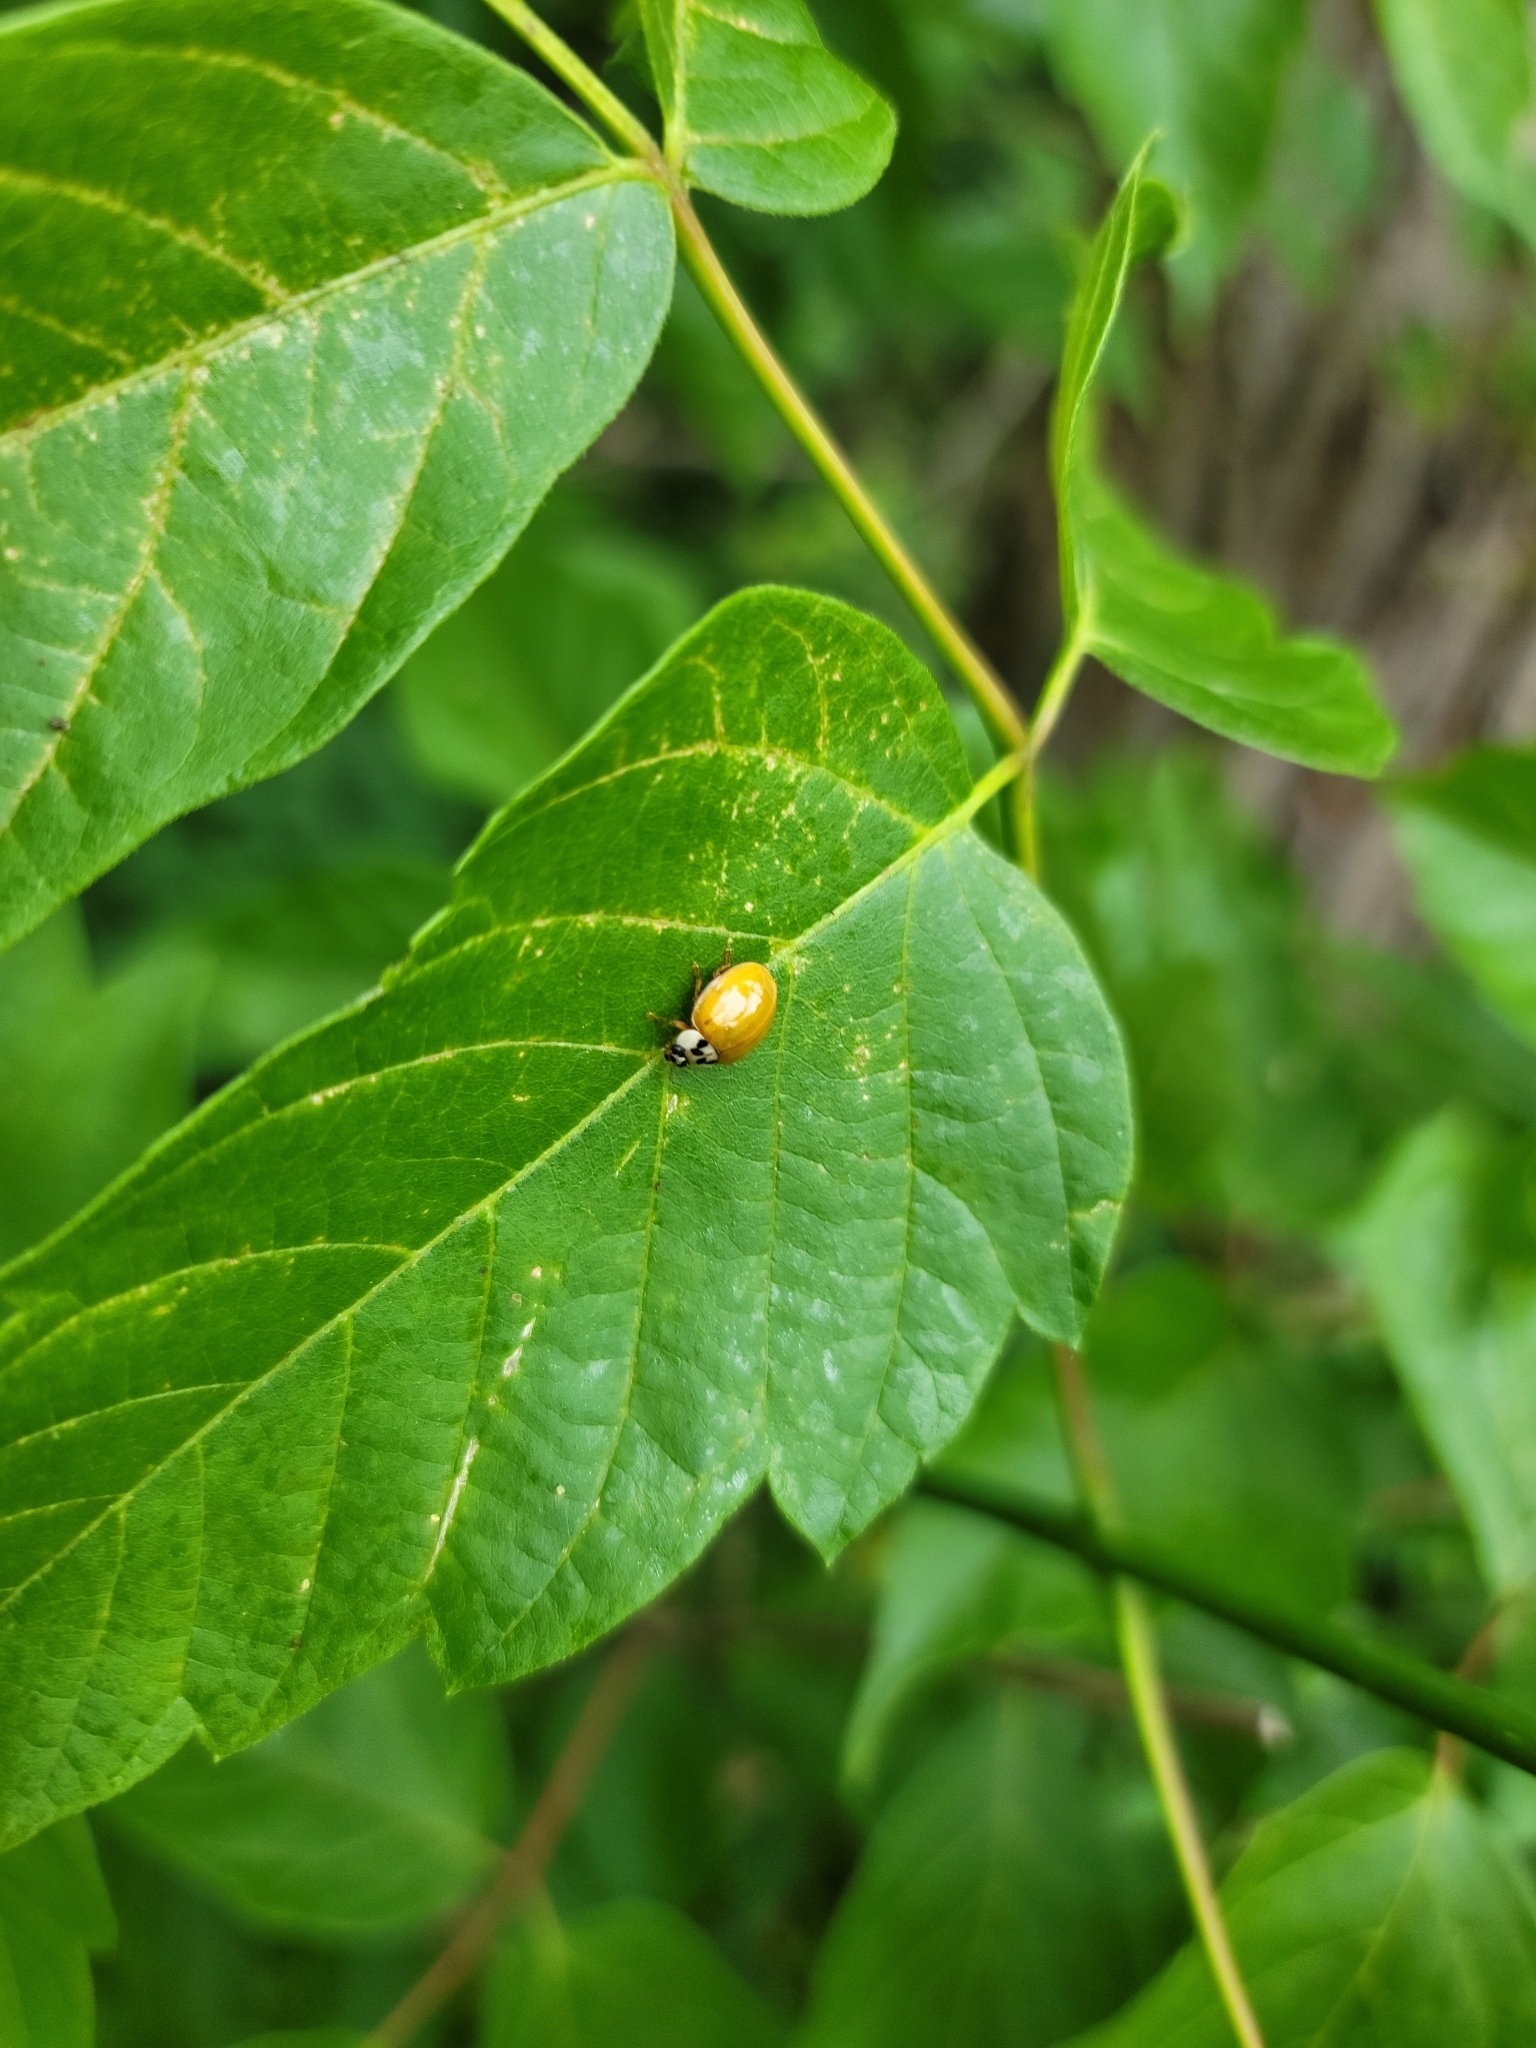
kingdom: Animalia
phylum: Arthropoda
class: Insecta
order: Coleoptera
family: Coccinellidae
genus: Harmonia
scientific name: Harmonia axyridis
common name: Harlequin ladybird
